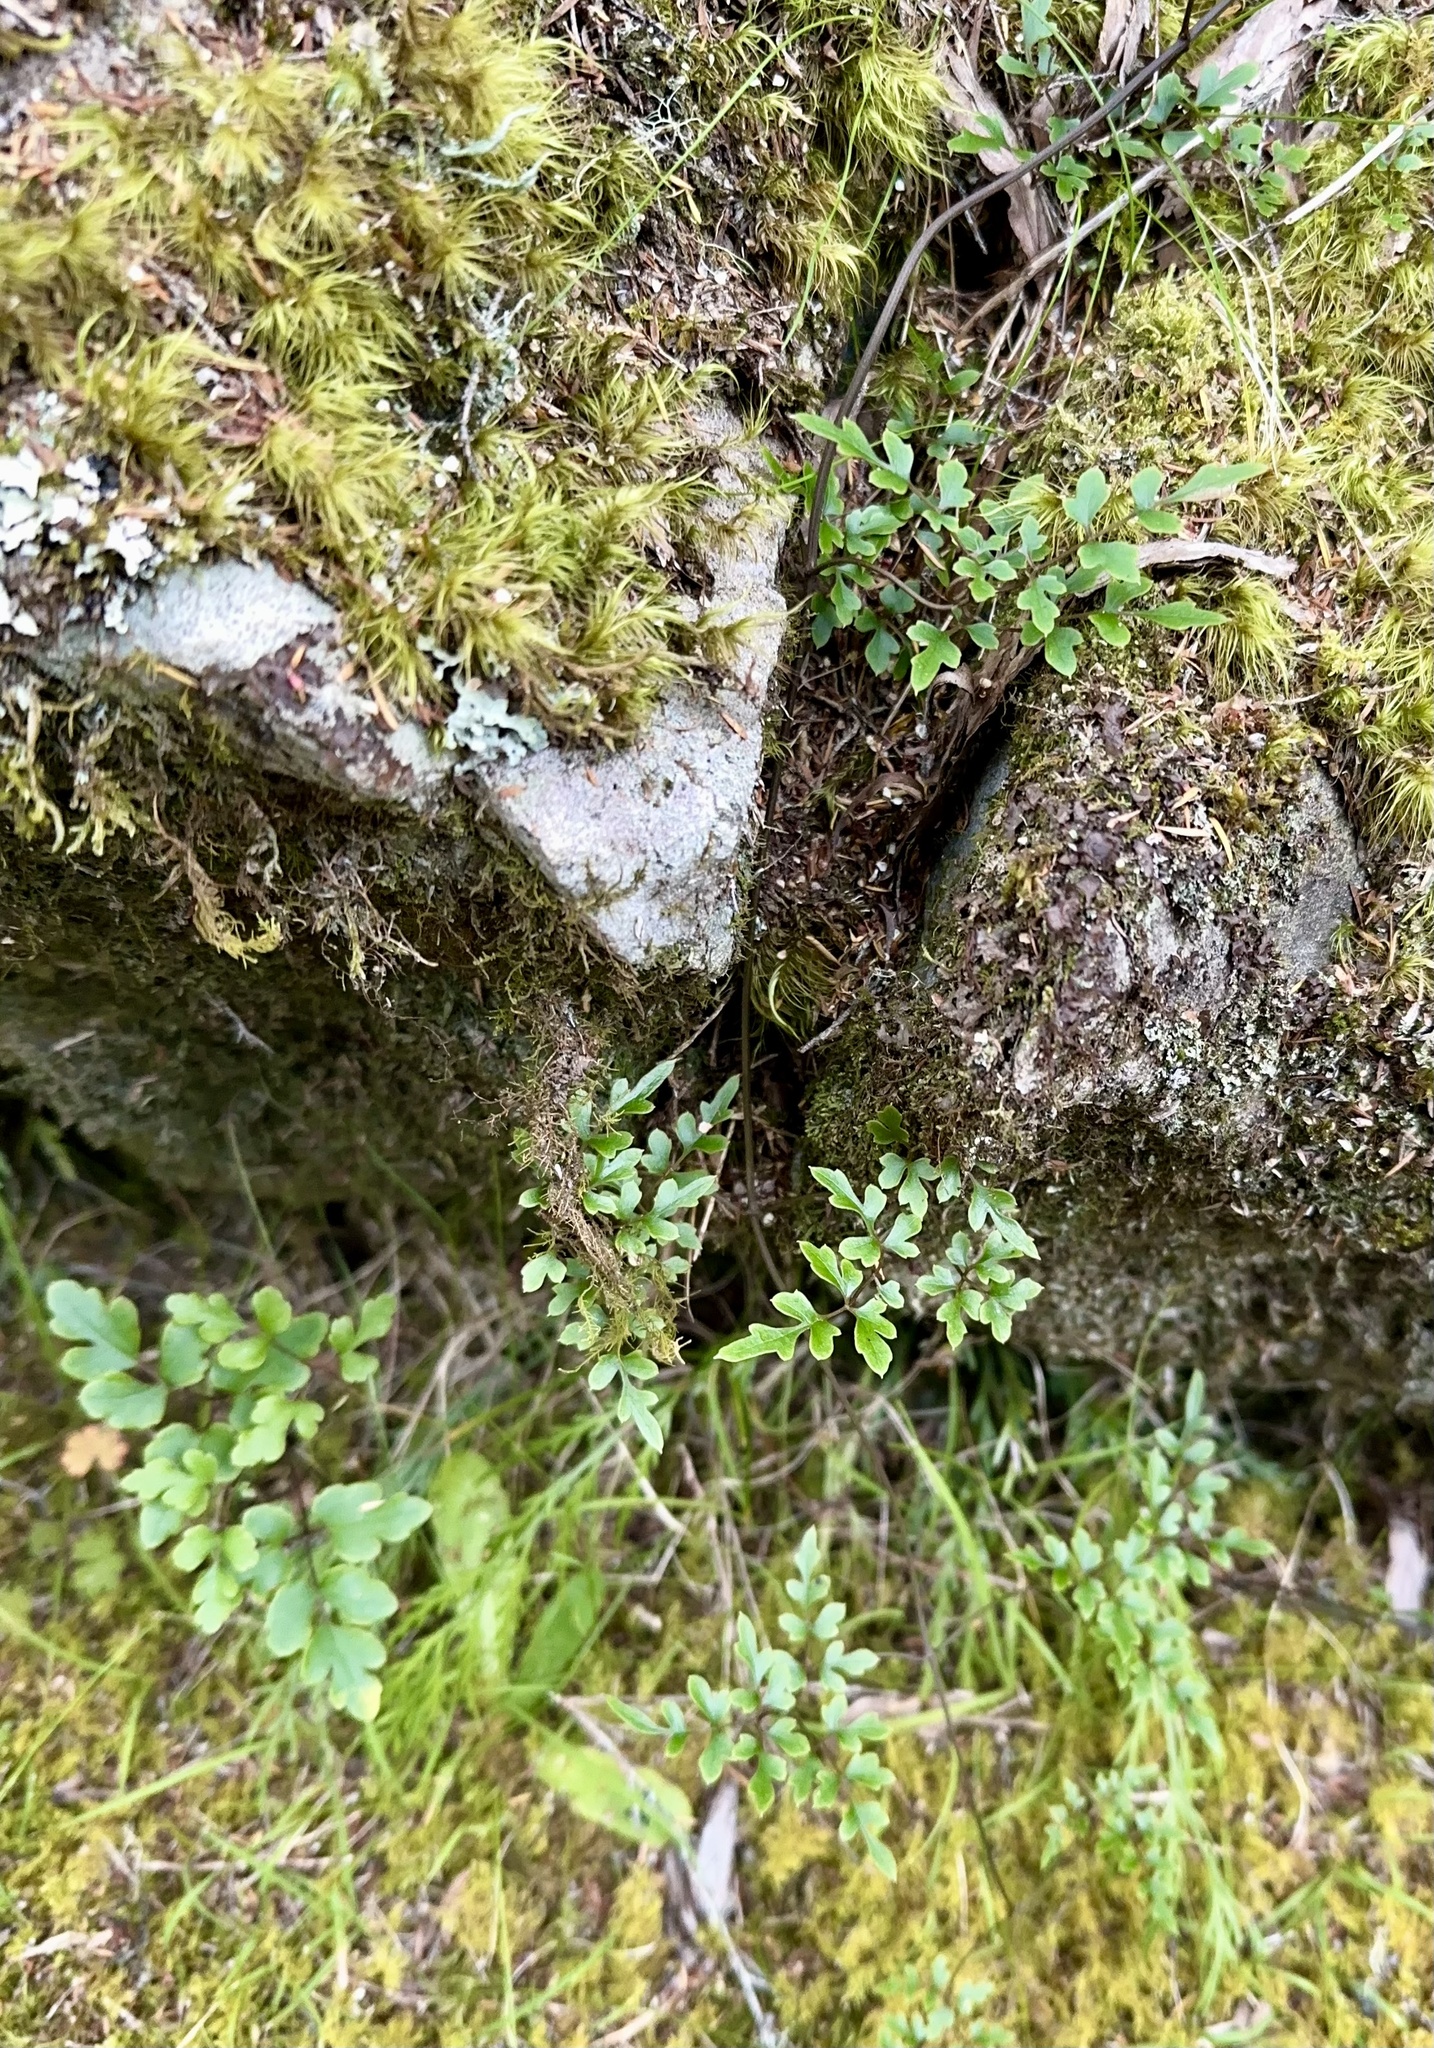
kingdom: Plantae
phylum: Tracheophyta
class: Magnoliopsida
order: Ranunculales
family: Ranunculaceae
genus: Clematis
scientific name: Clematis forsteri
